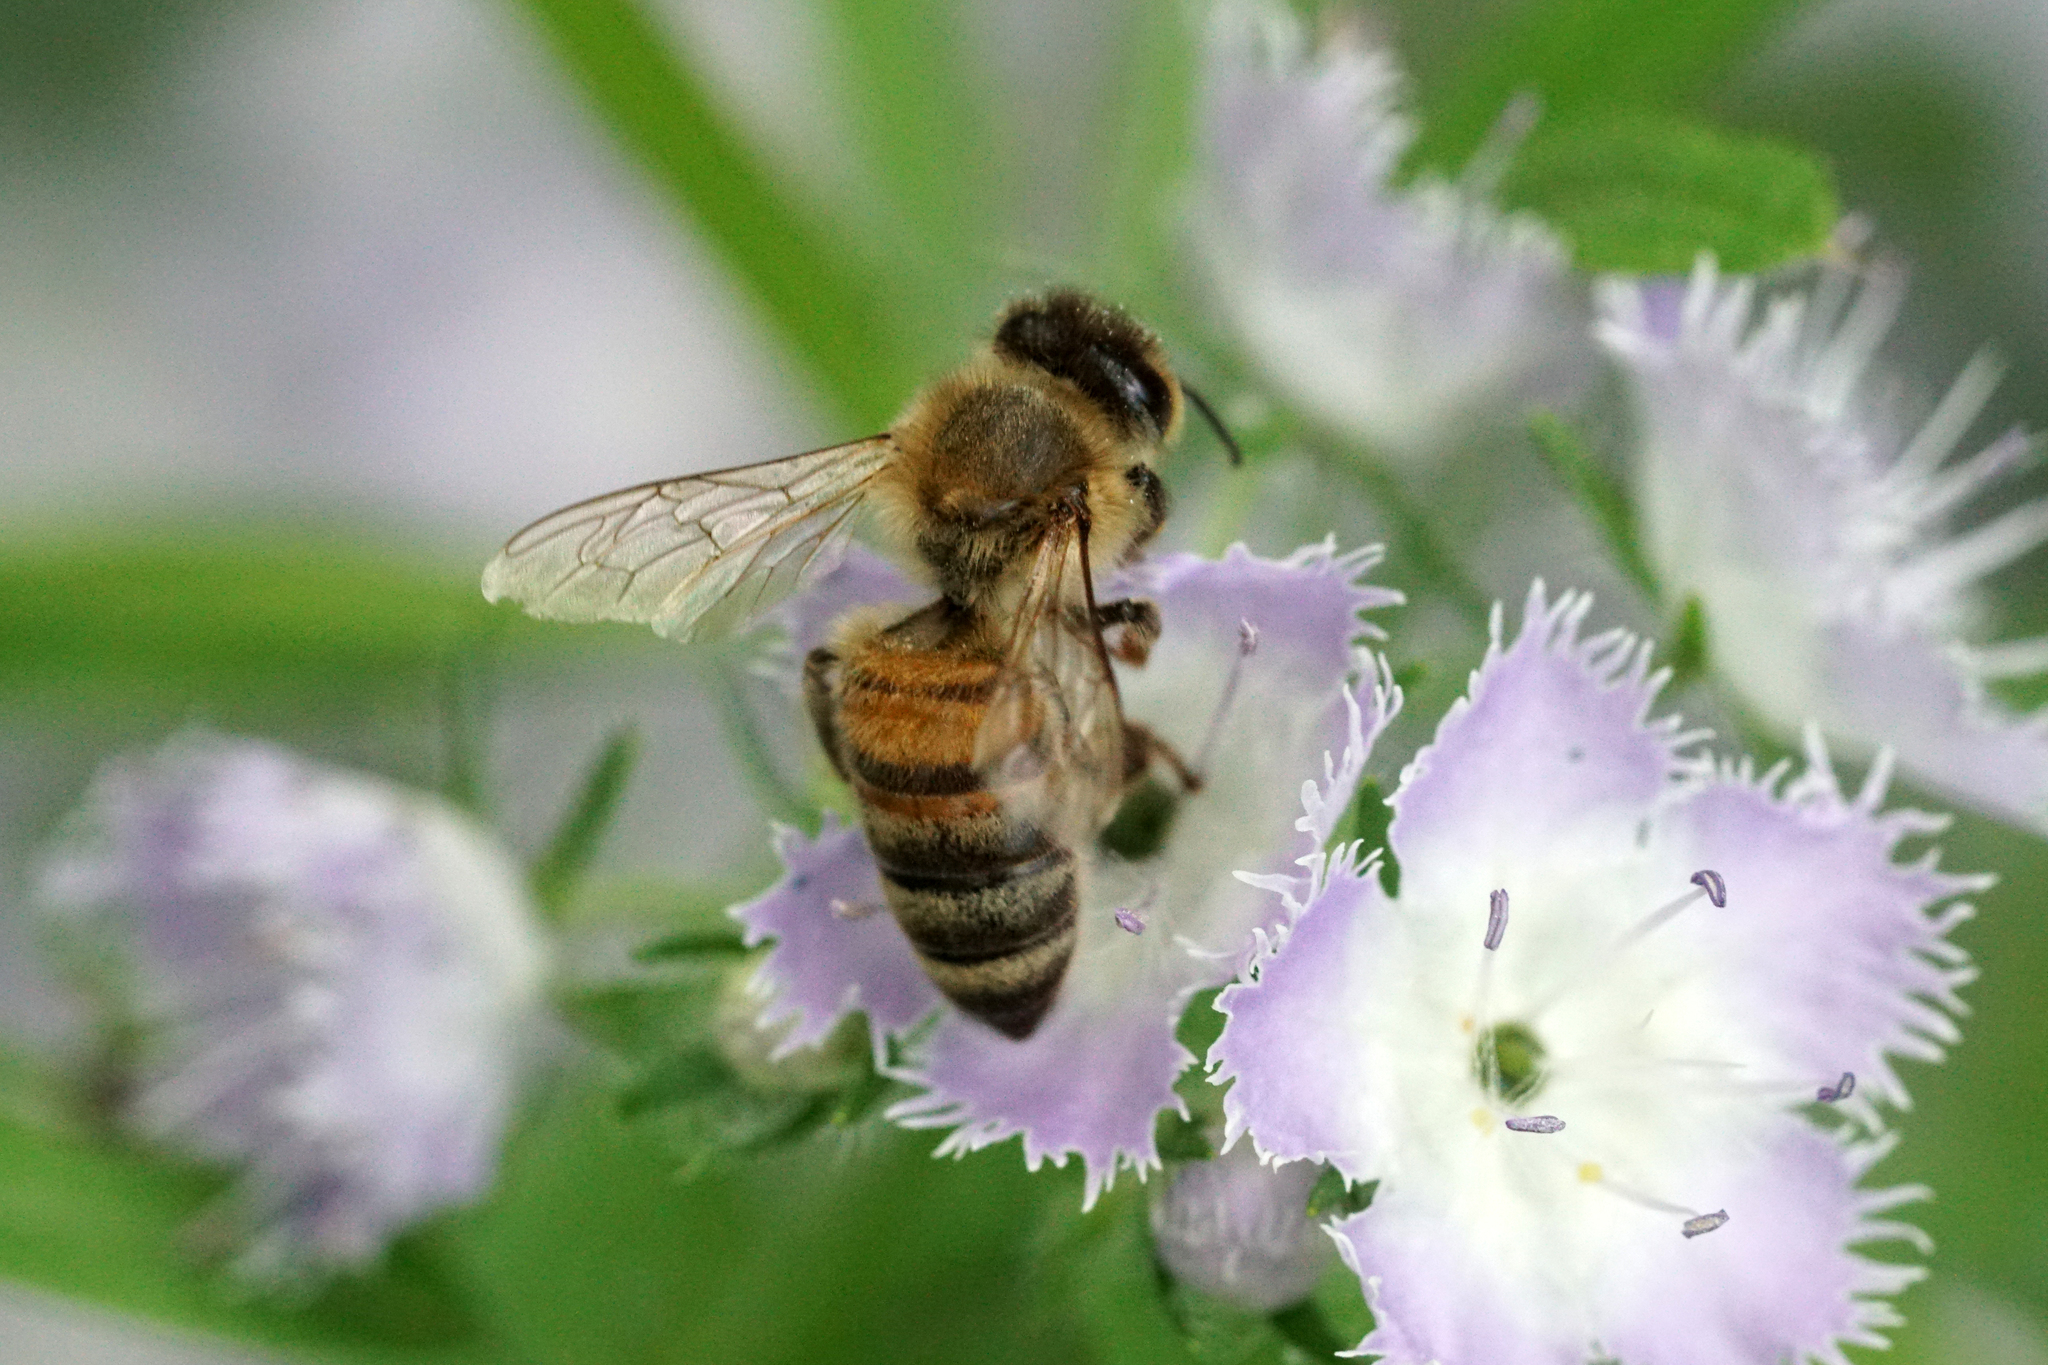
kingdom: Animalia
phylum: Arthropoda
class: Insecta
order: Hymenoptera
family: Apidae
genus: Apis
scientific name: Apis mellifera
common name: Honey bee
